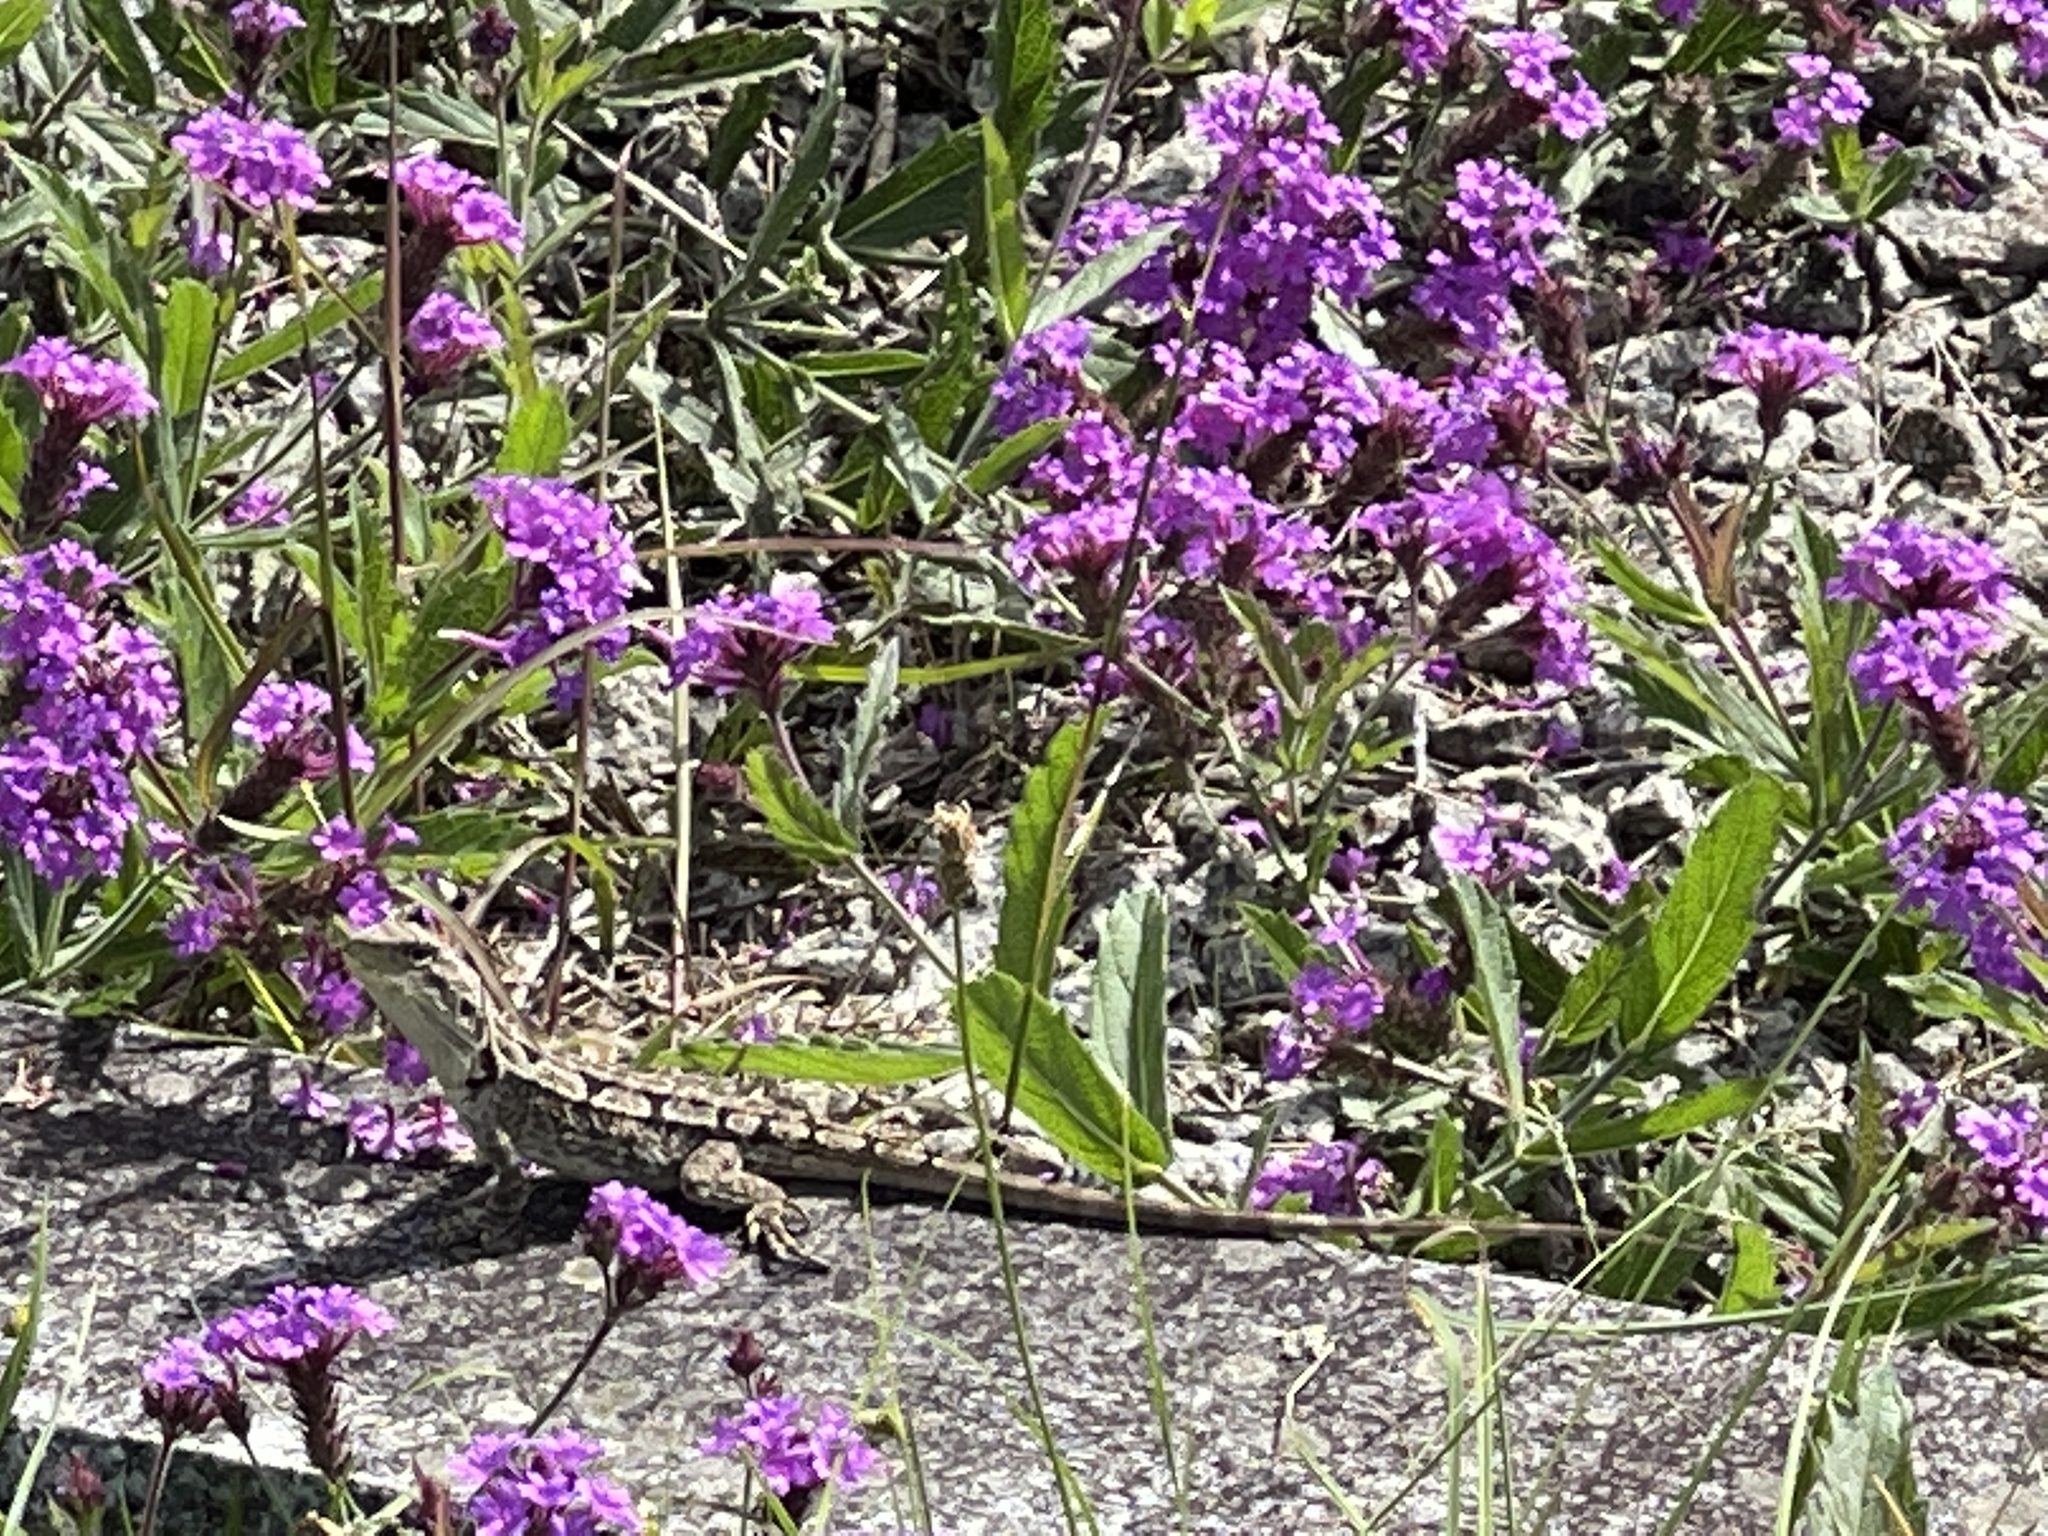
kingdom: Animalia
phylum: Chordata
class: Squamata
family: Agamidae
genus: Amphibolurus
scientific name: Amphibolurus muricatus
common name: Jacky lizard
